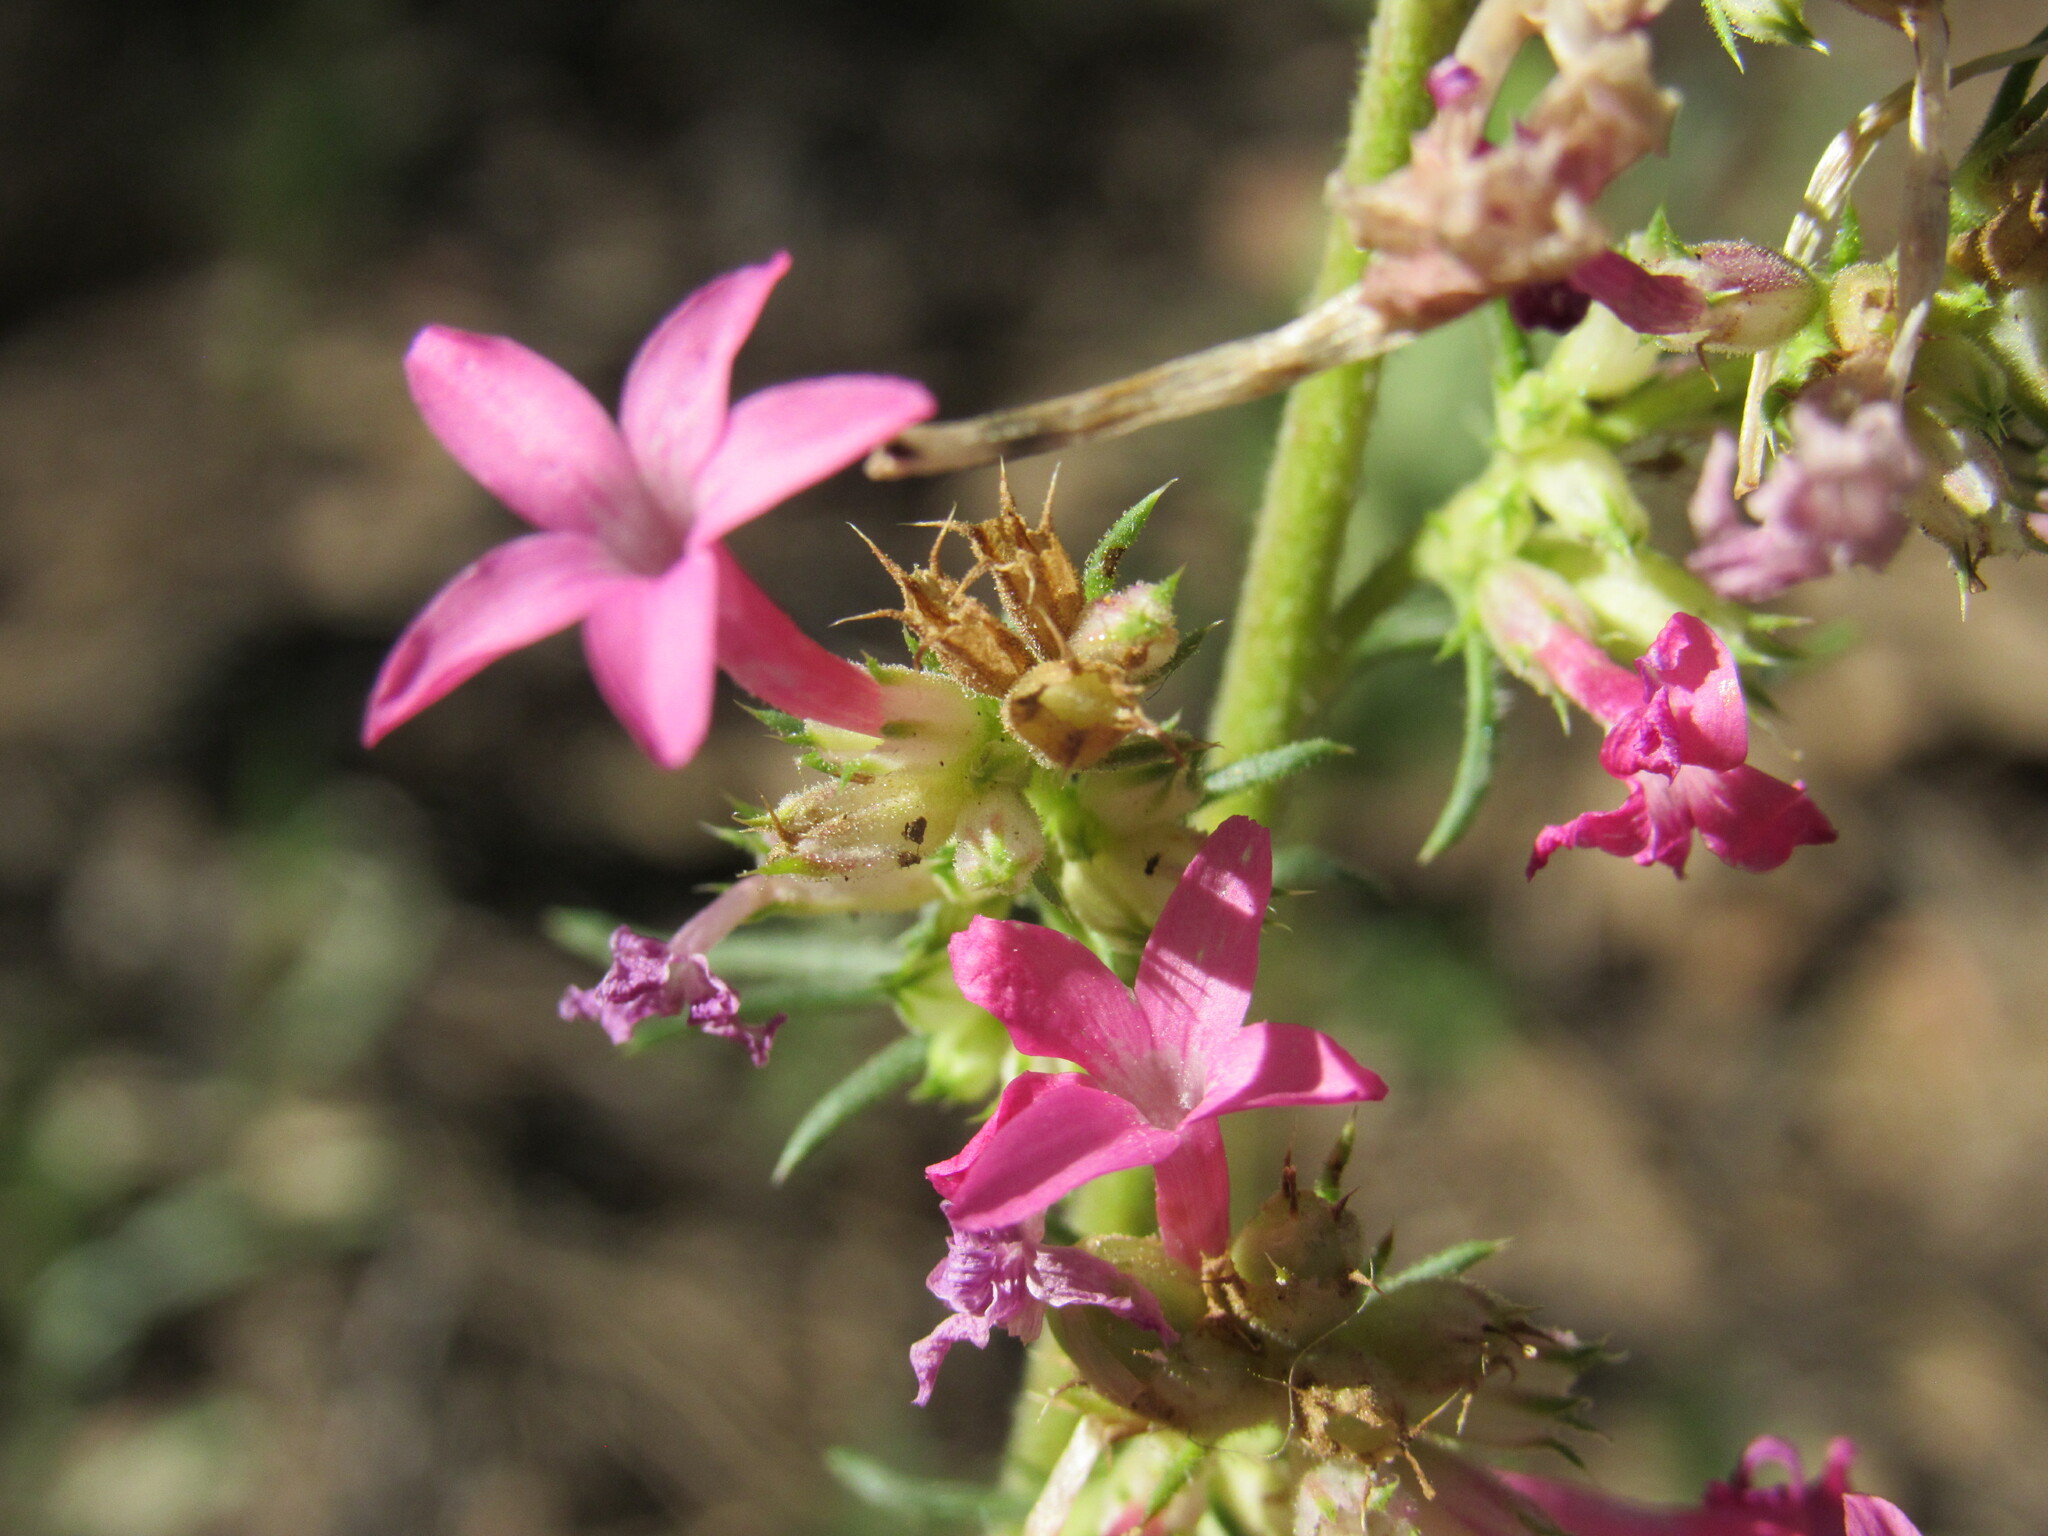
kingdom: Plantae
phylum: Tracheophyta
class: Magnoliopsida
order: Ericales
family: Polemoniaceae
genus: Ipomopsis
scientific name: Ipomopsis sancti-spiritus
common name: Holy ghost ipomopsis
